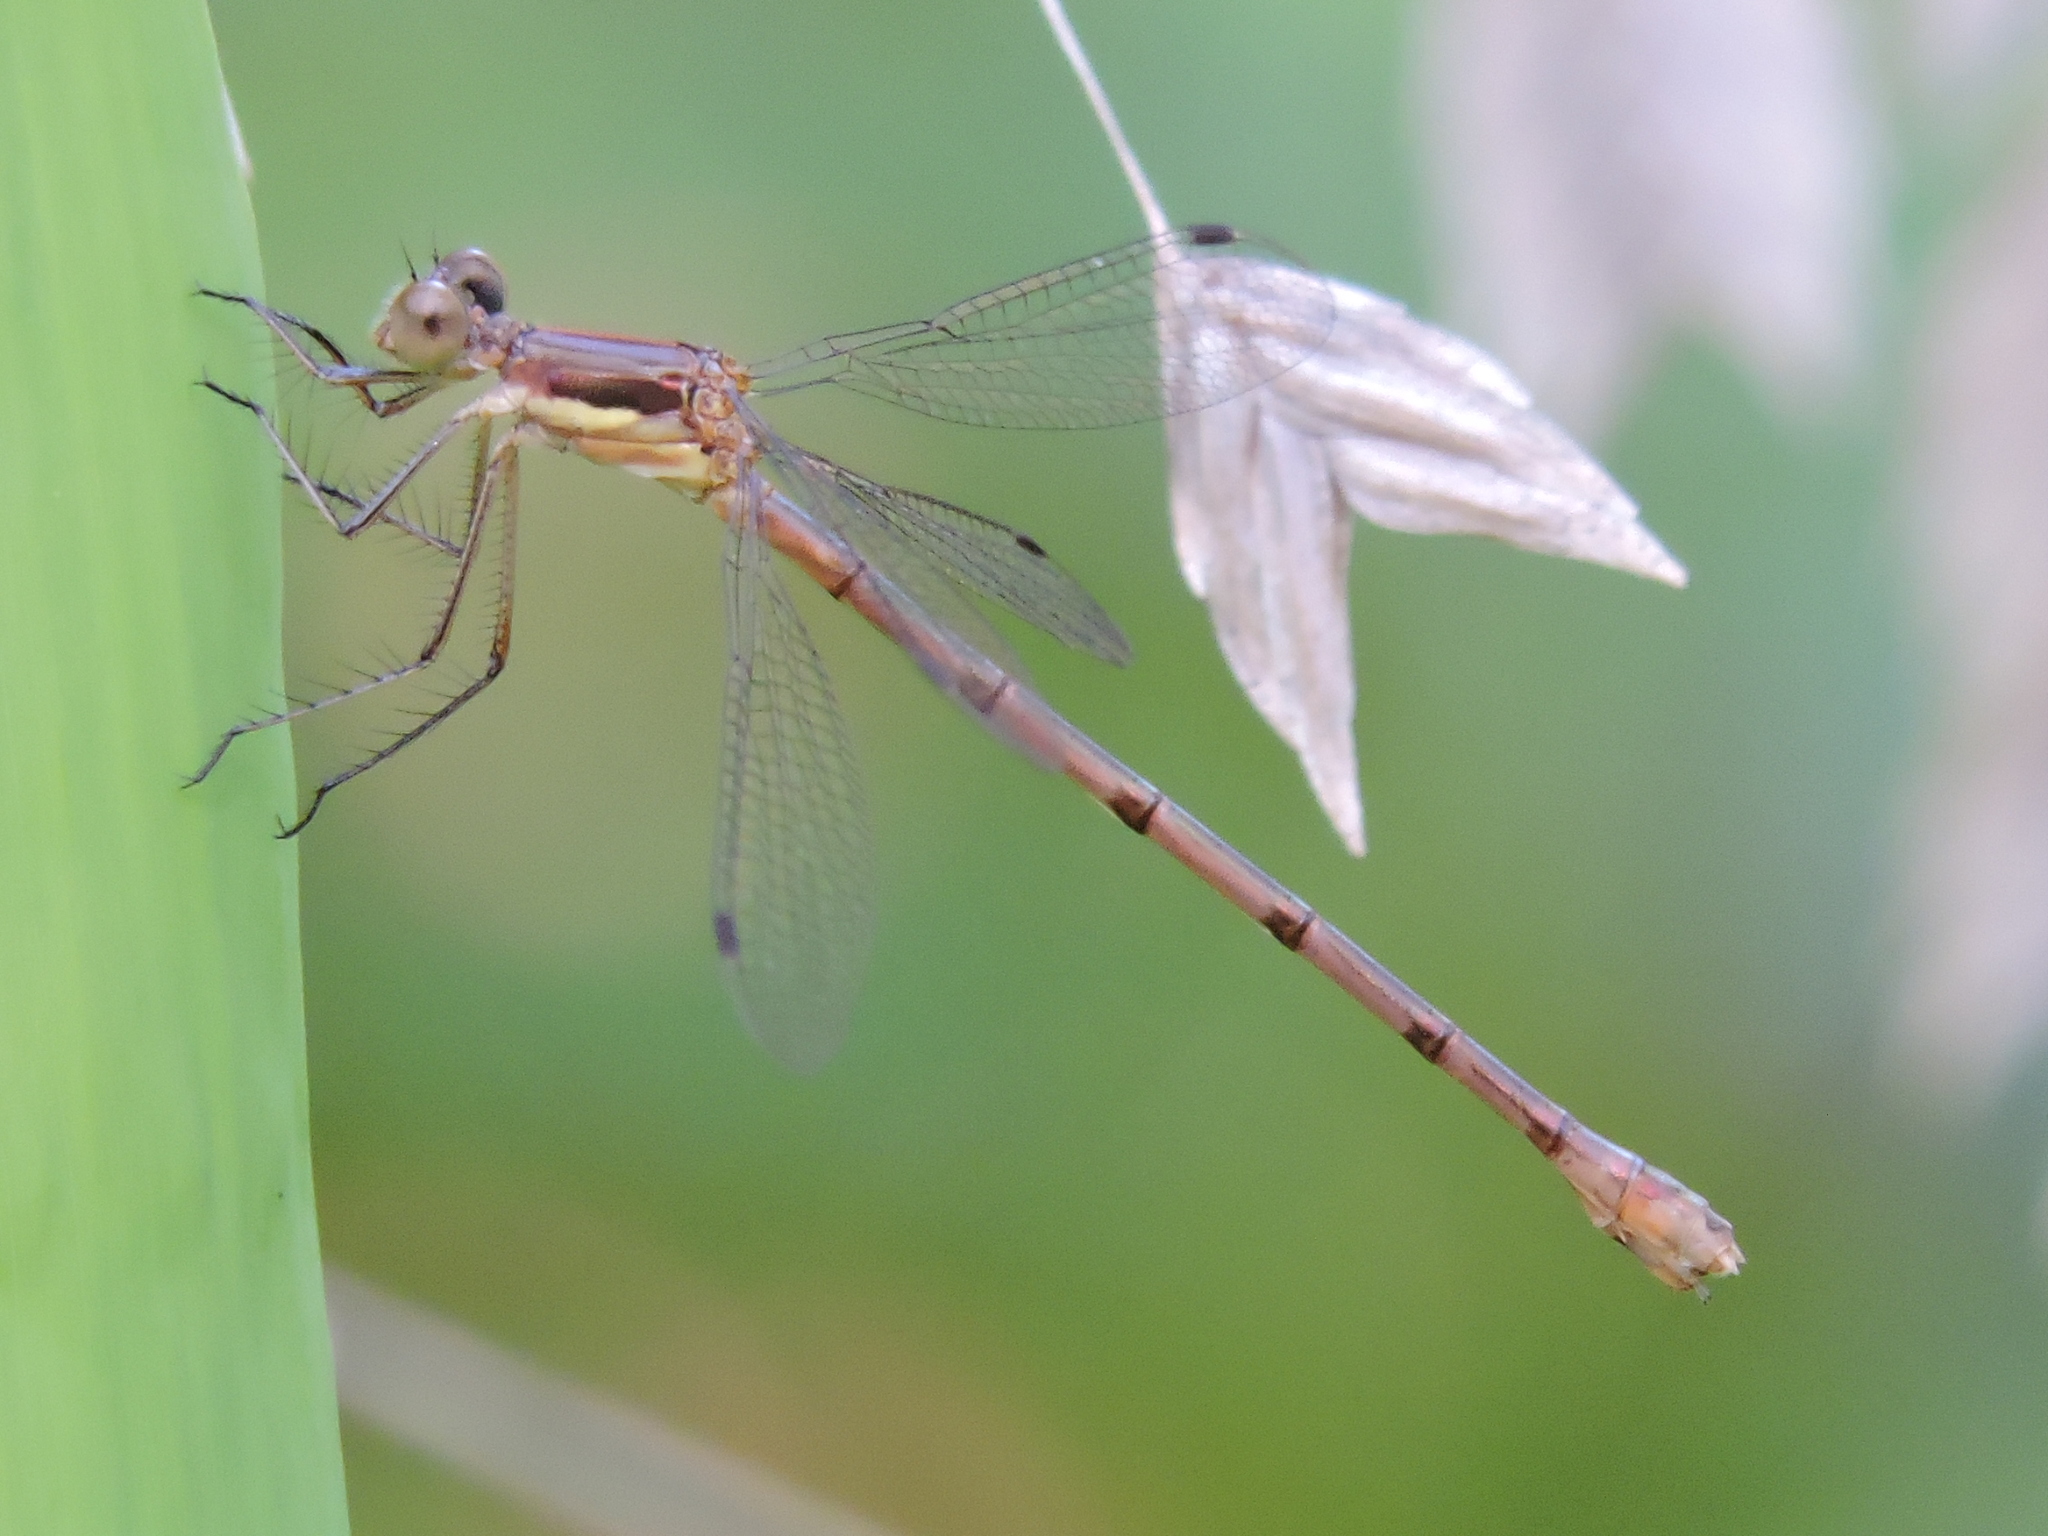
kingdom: Animalia
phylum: Arthropoda
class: Insecta
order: Odonata
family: Lestidae
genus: Lestes
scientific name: Lestes australis
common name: Southern spreadwing
